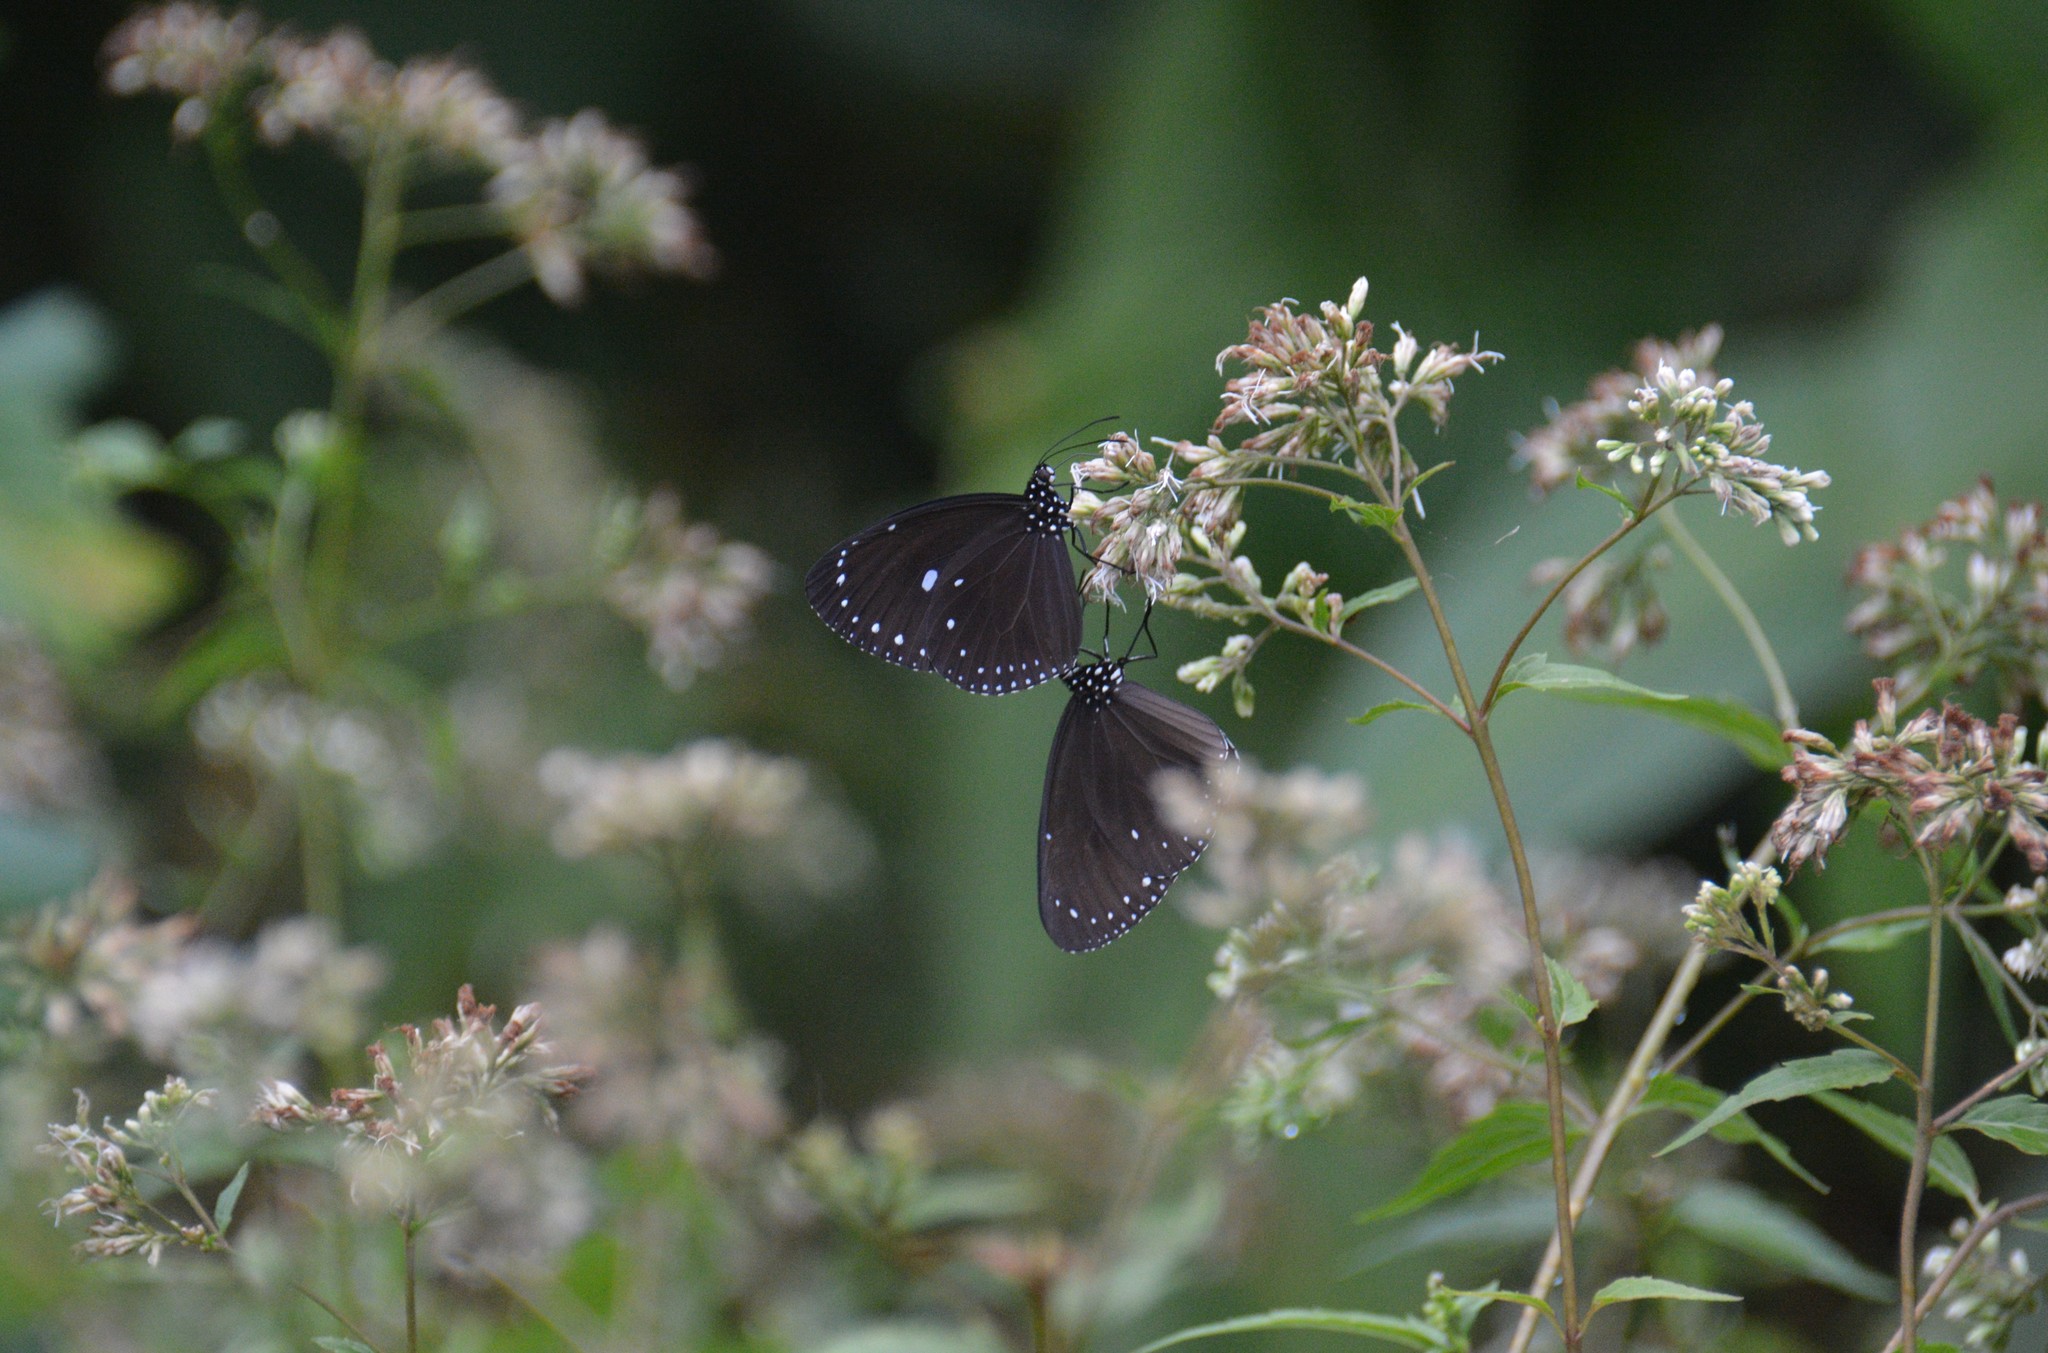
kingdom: Animalia
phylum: Arthropoda
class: Insecta
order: Lepidoptera
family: Nymphalidae
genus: Euploea
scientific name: Euploea tulliolus
